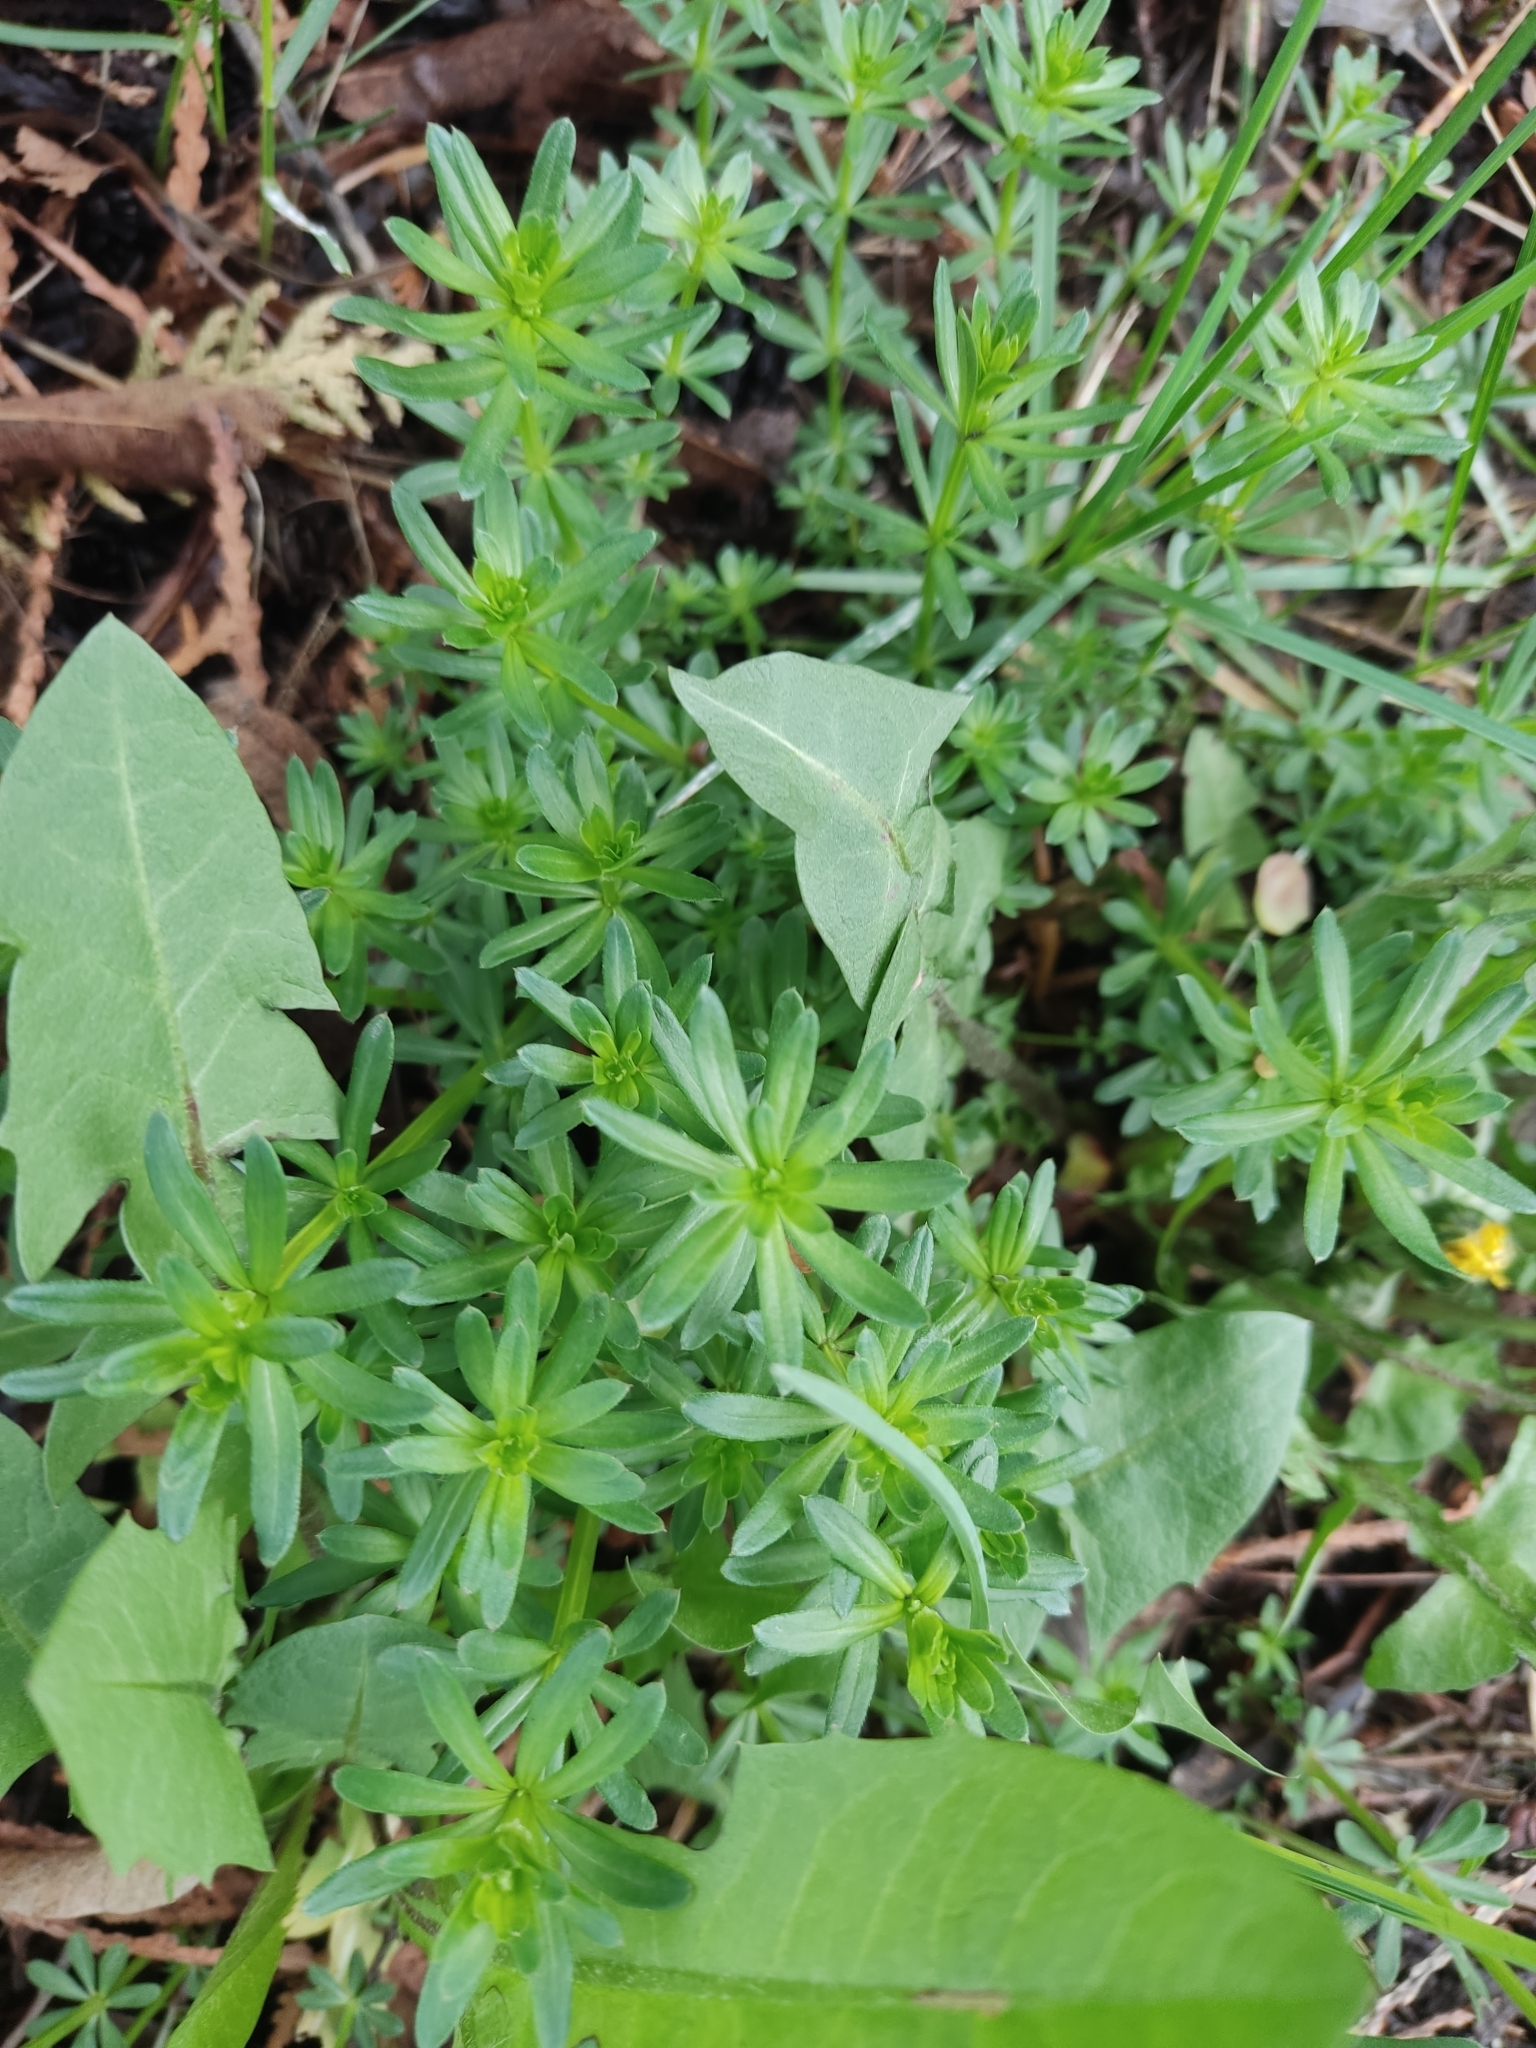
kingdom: Plantae
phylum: Tracheophyta
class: Magnoliopsida
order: Gentianales
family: Rubiaceae
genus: Galium
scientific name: Galium mollugo
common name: Hedge bedstraw
